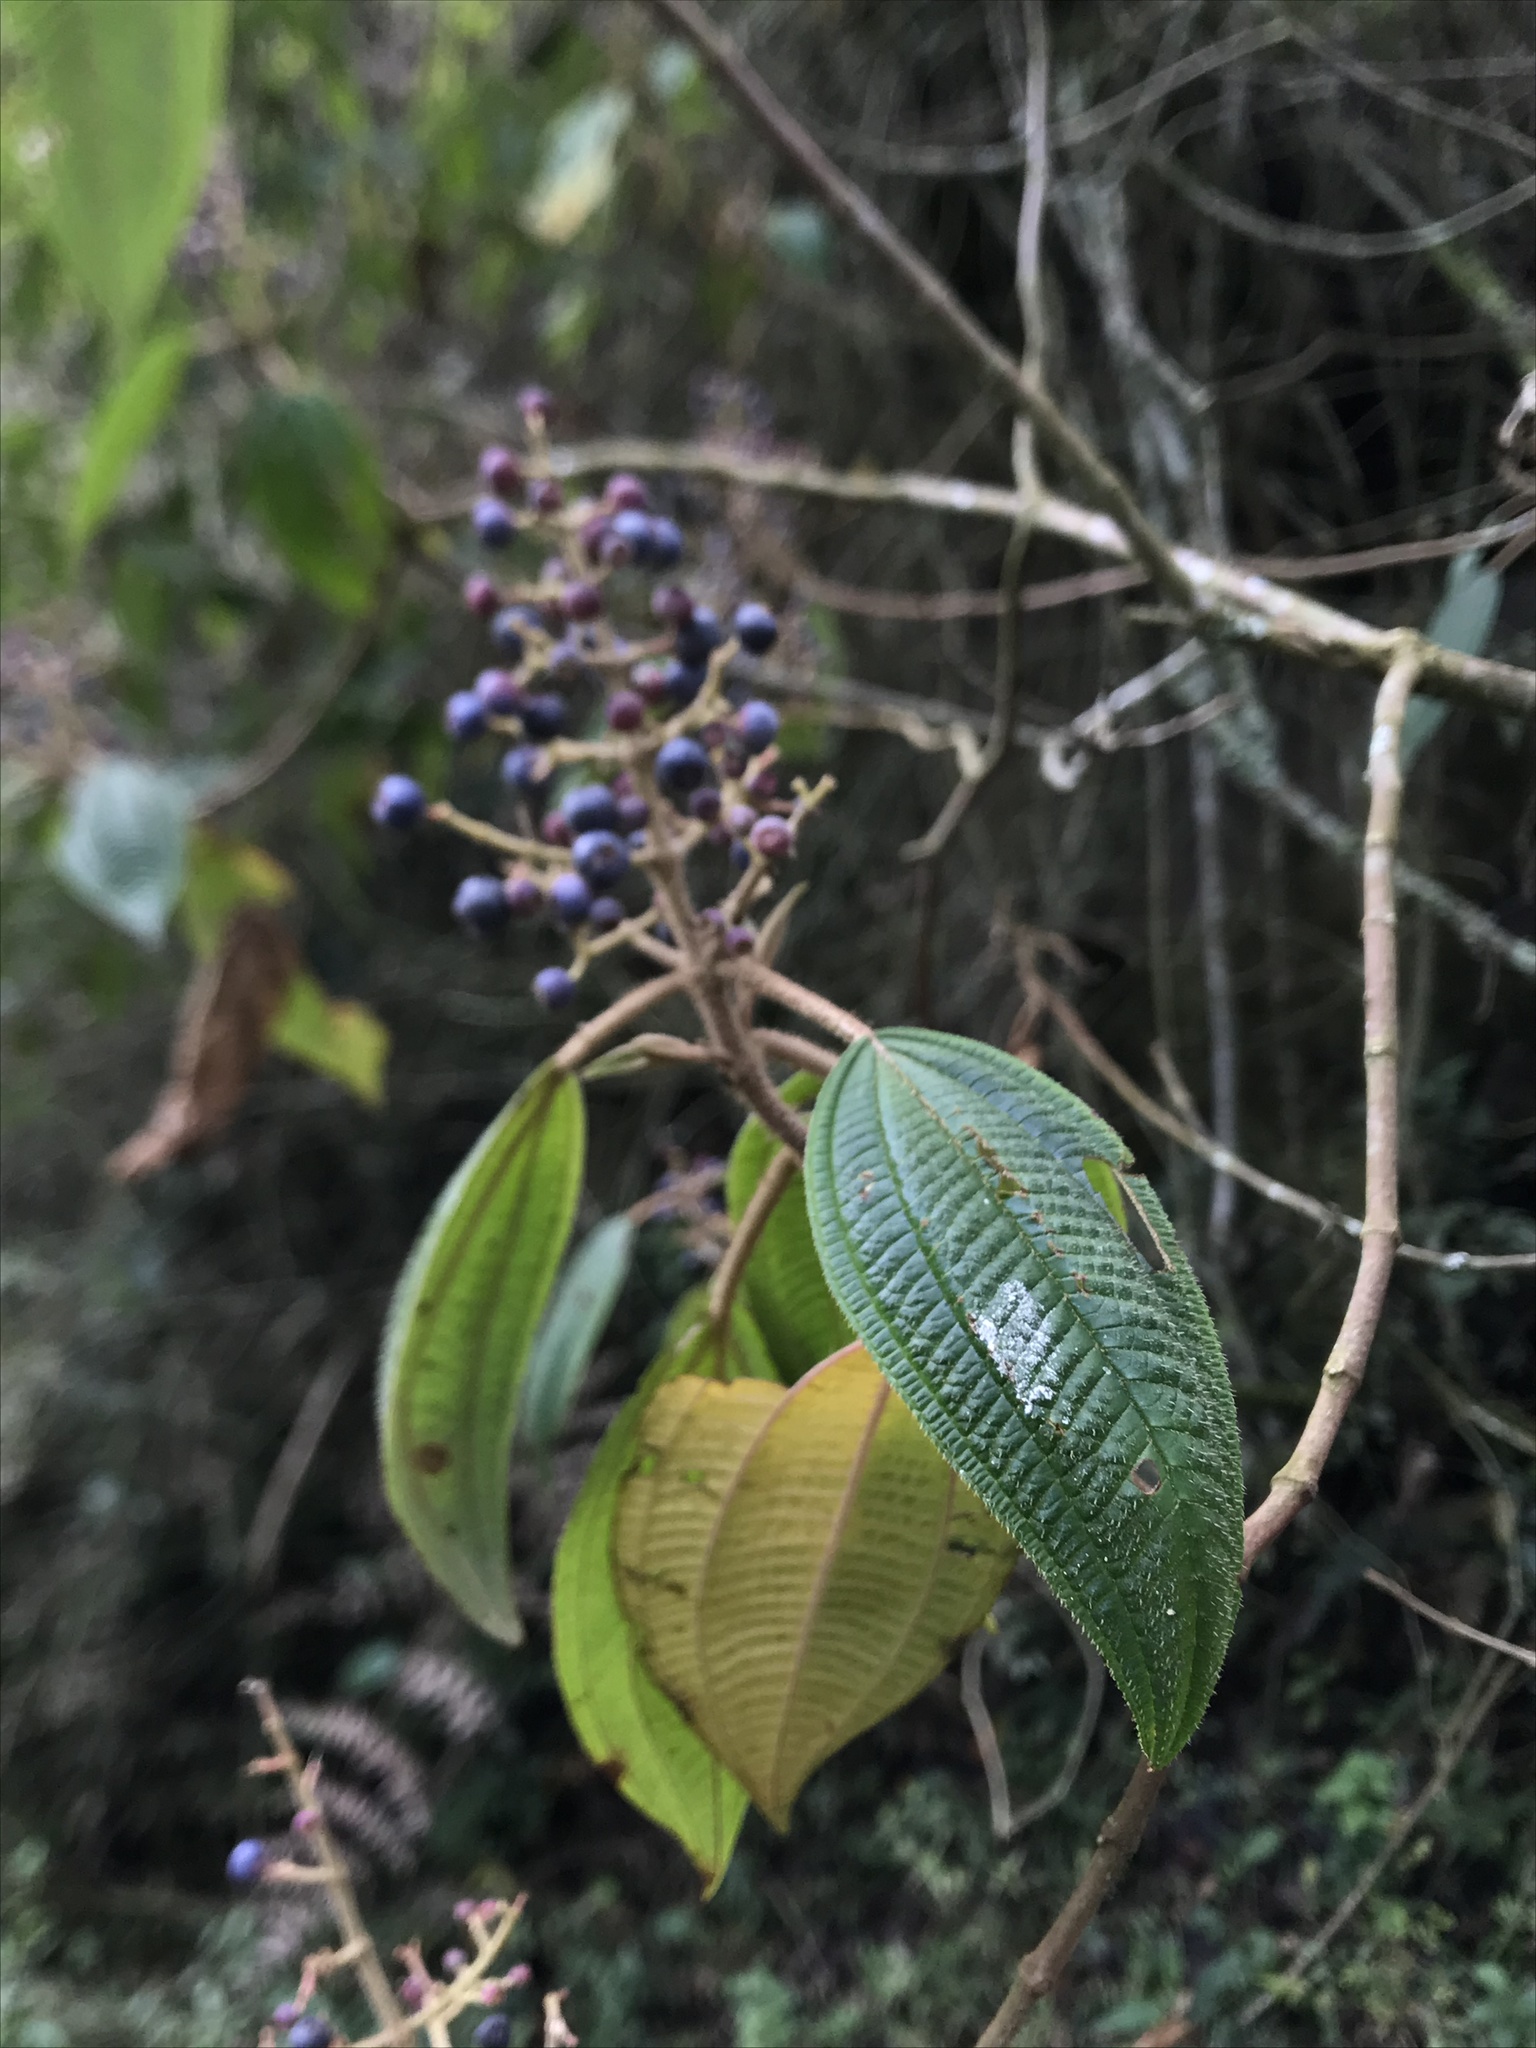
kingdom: Plantae
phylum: Tracheophyta
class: Magnoliopsida
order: Myrtales
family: Melastomataceae
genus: Miconia
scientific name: Miconia subseriata
